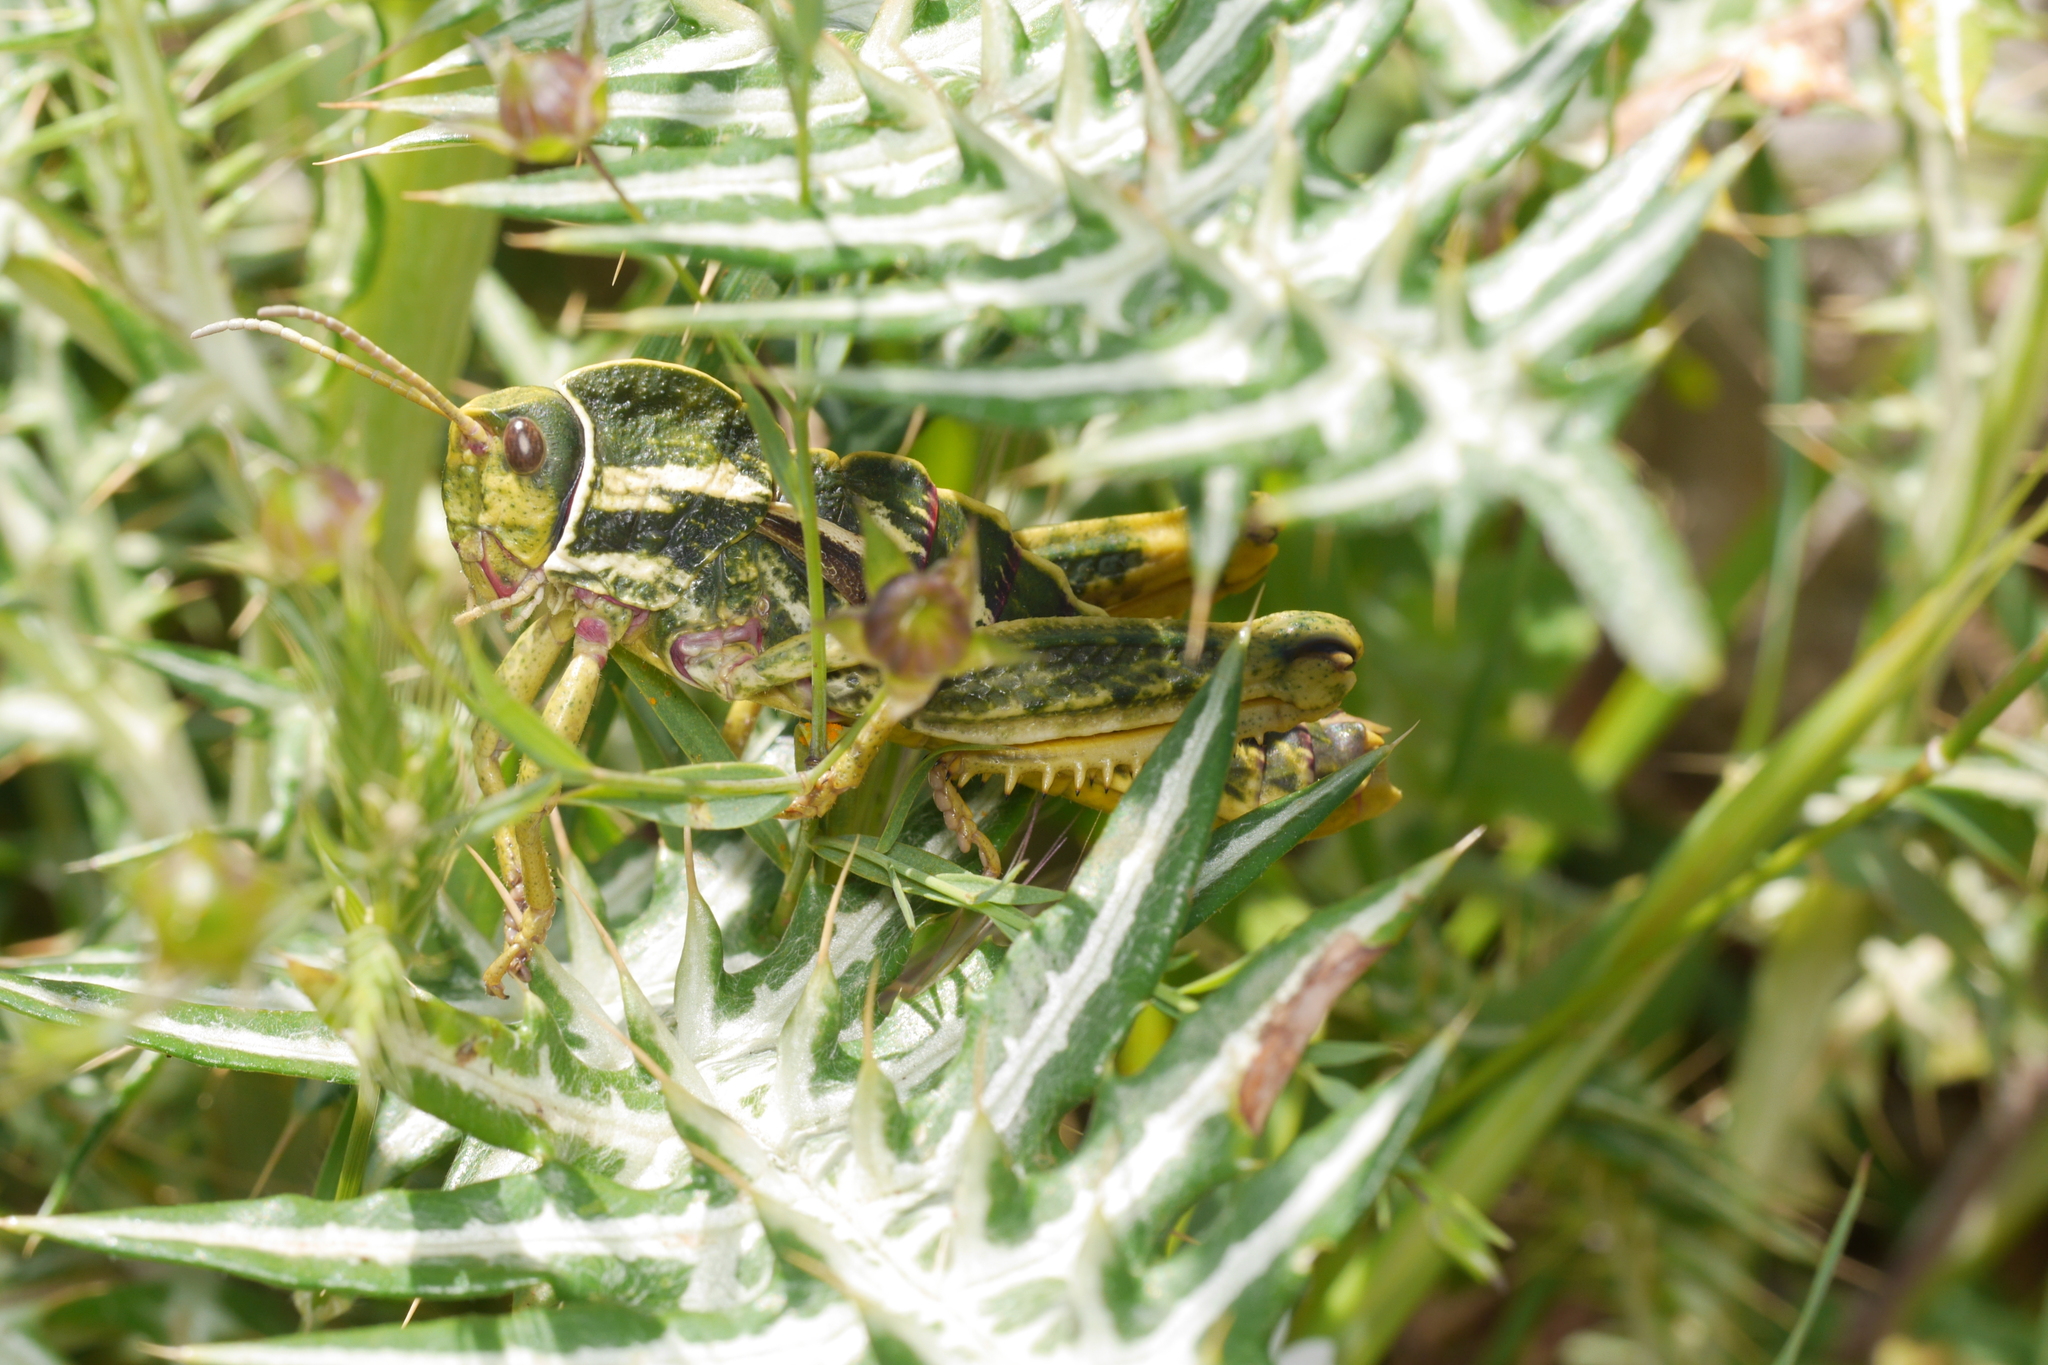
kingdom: Animalia
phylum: Arthropoda
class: Insecta
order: Orthoptera
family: Pamphagidae
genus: Pamphagus
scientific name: Pamphagus marmoratus
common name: Marbled stone grasshopper
